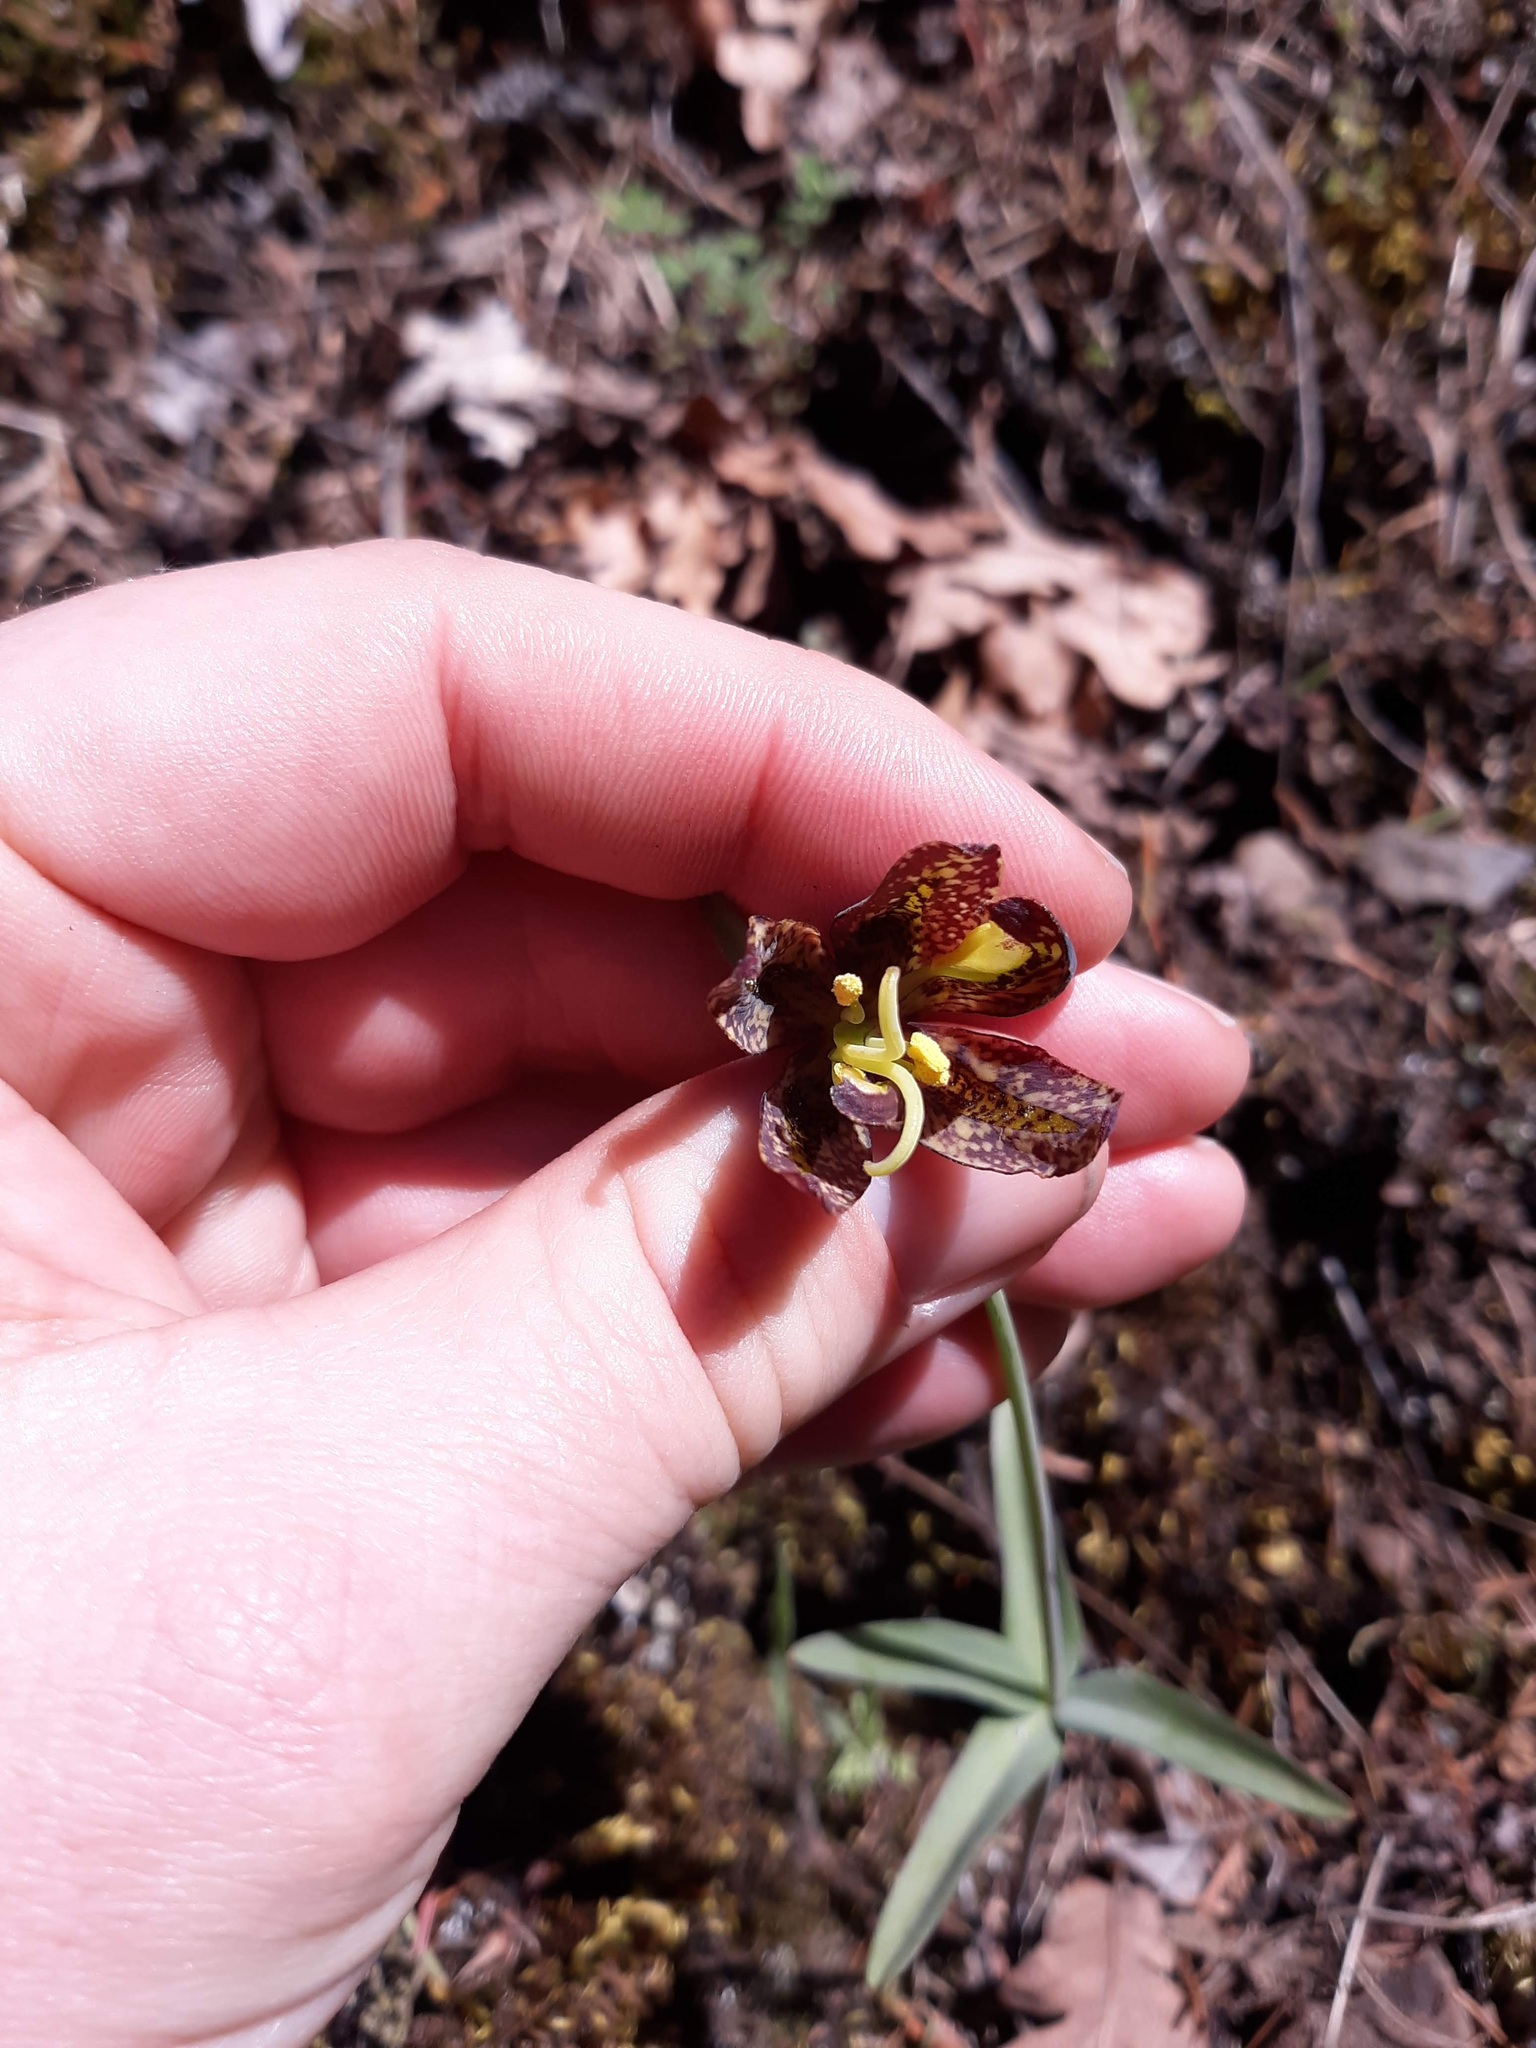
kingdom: Plantae
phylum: Tracheophyta
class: Liliopsida
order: Liliales
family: Liliaceae
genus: Fritillaria
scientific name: Fritillaria affinis
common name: Ojai fritillary
